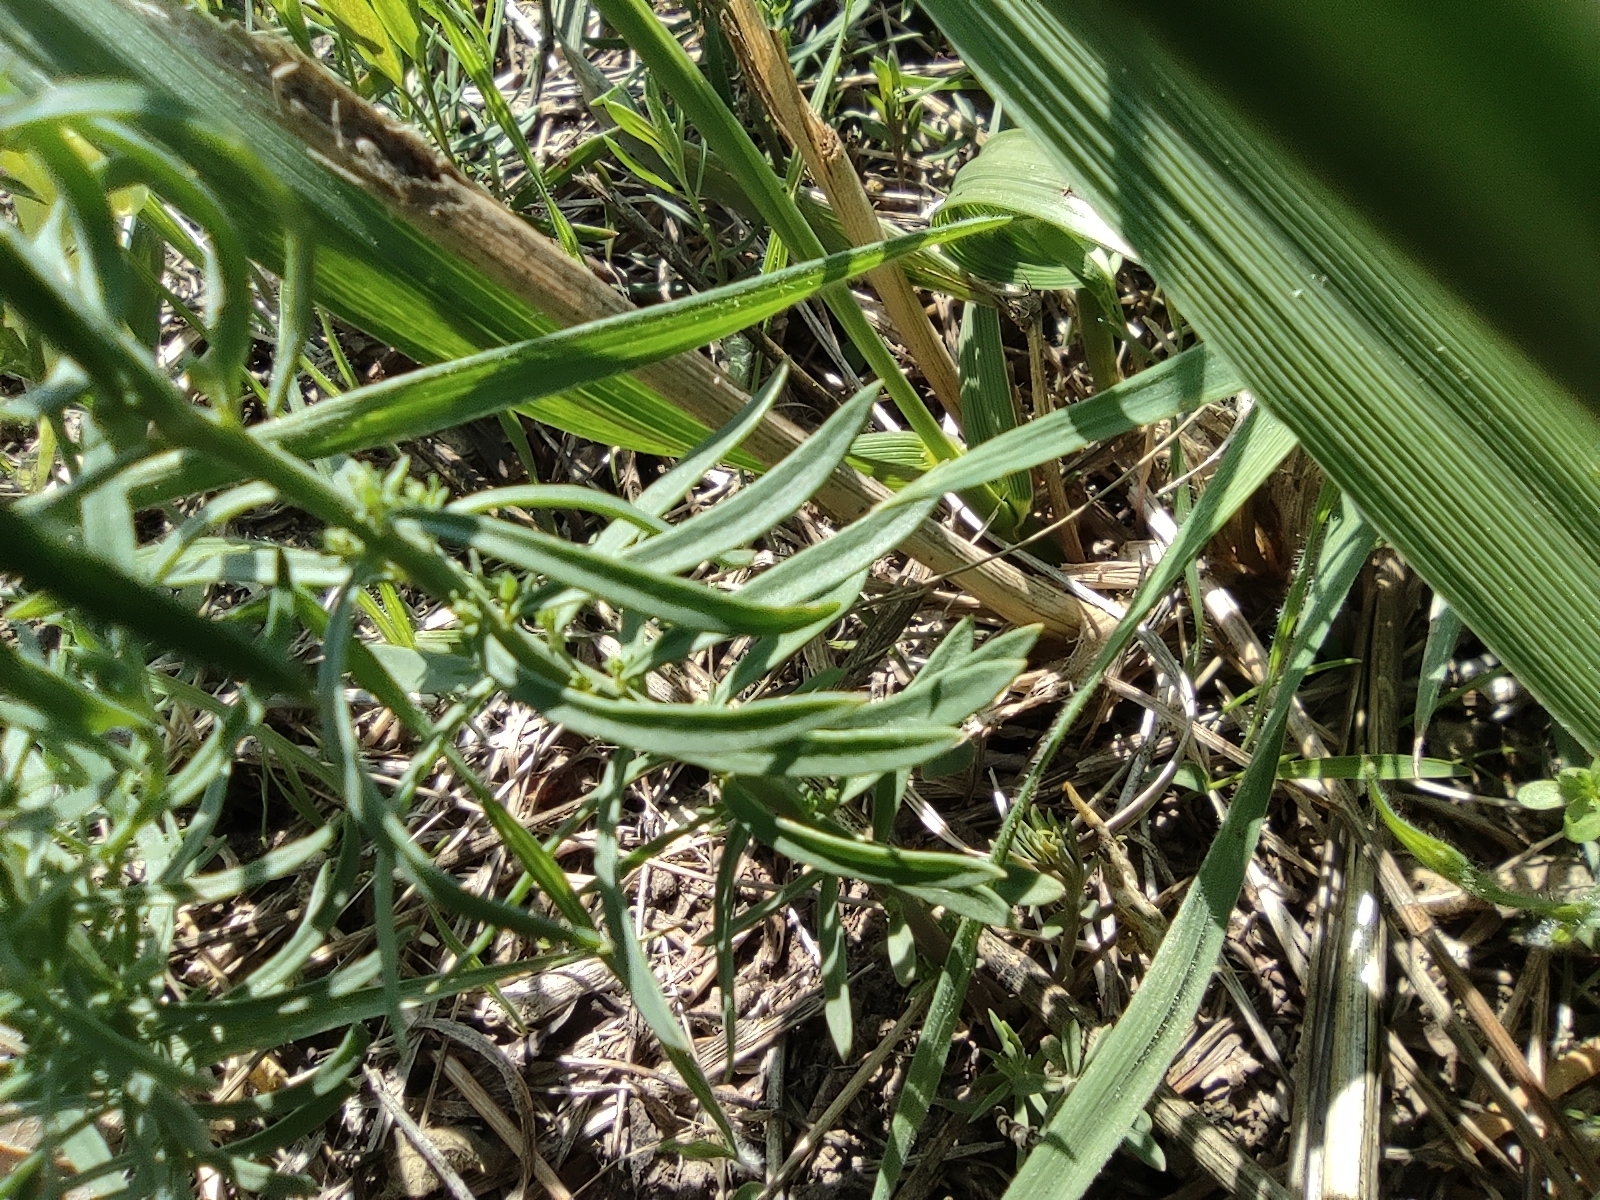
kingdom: Plantae
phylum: Tracheophyta
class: Magnoliopsida
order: Lamiales
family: Plantaginaceae
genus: Linaria
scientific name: Linaria vulgaris
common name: Butter and eggs
